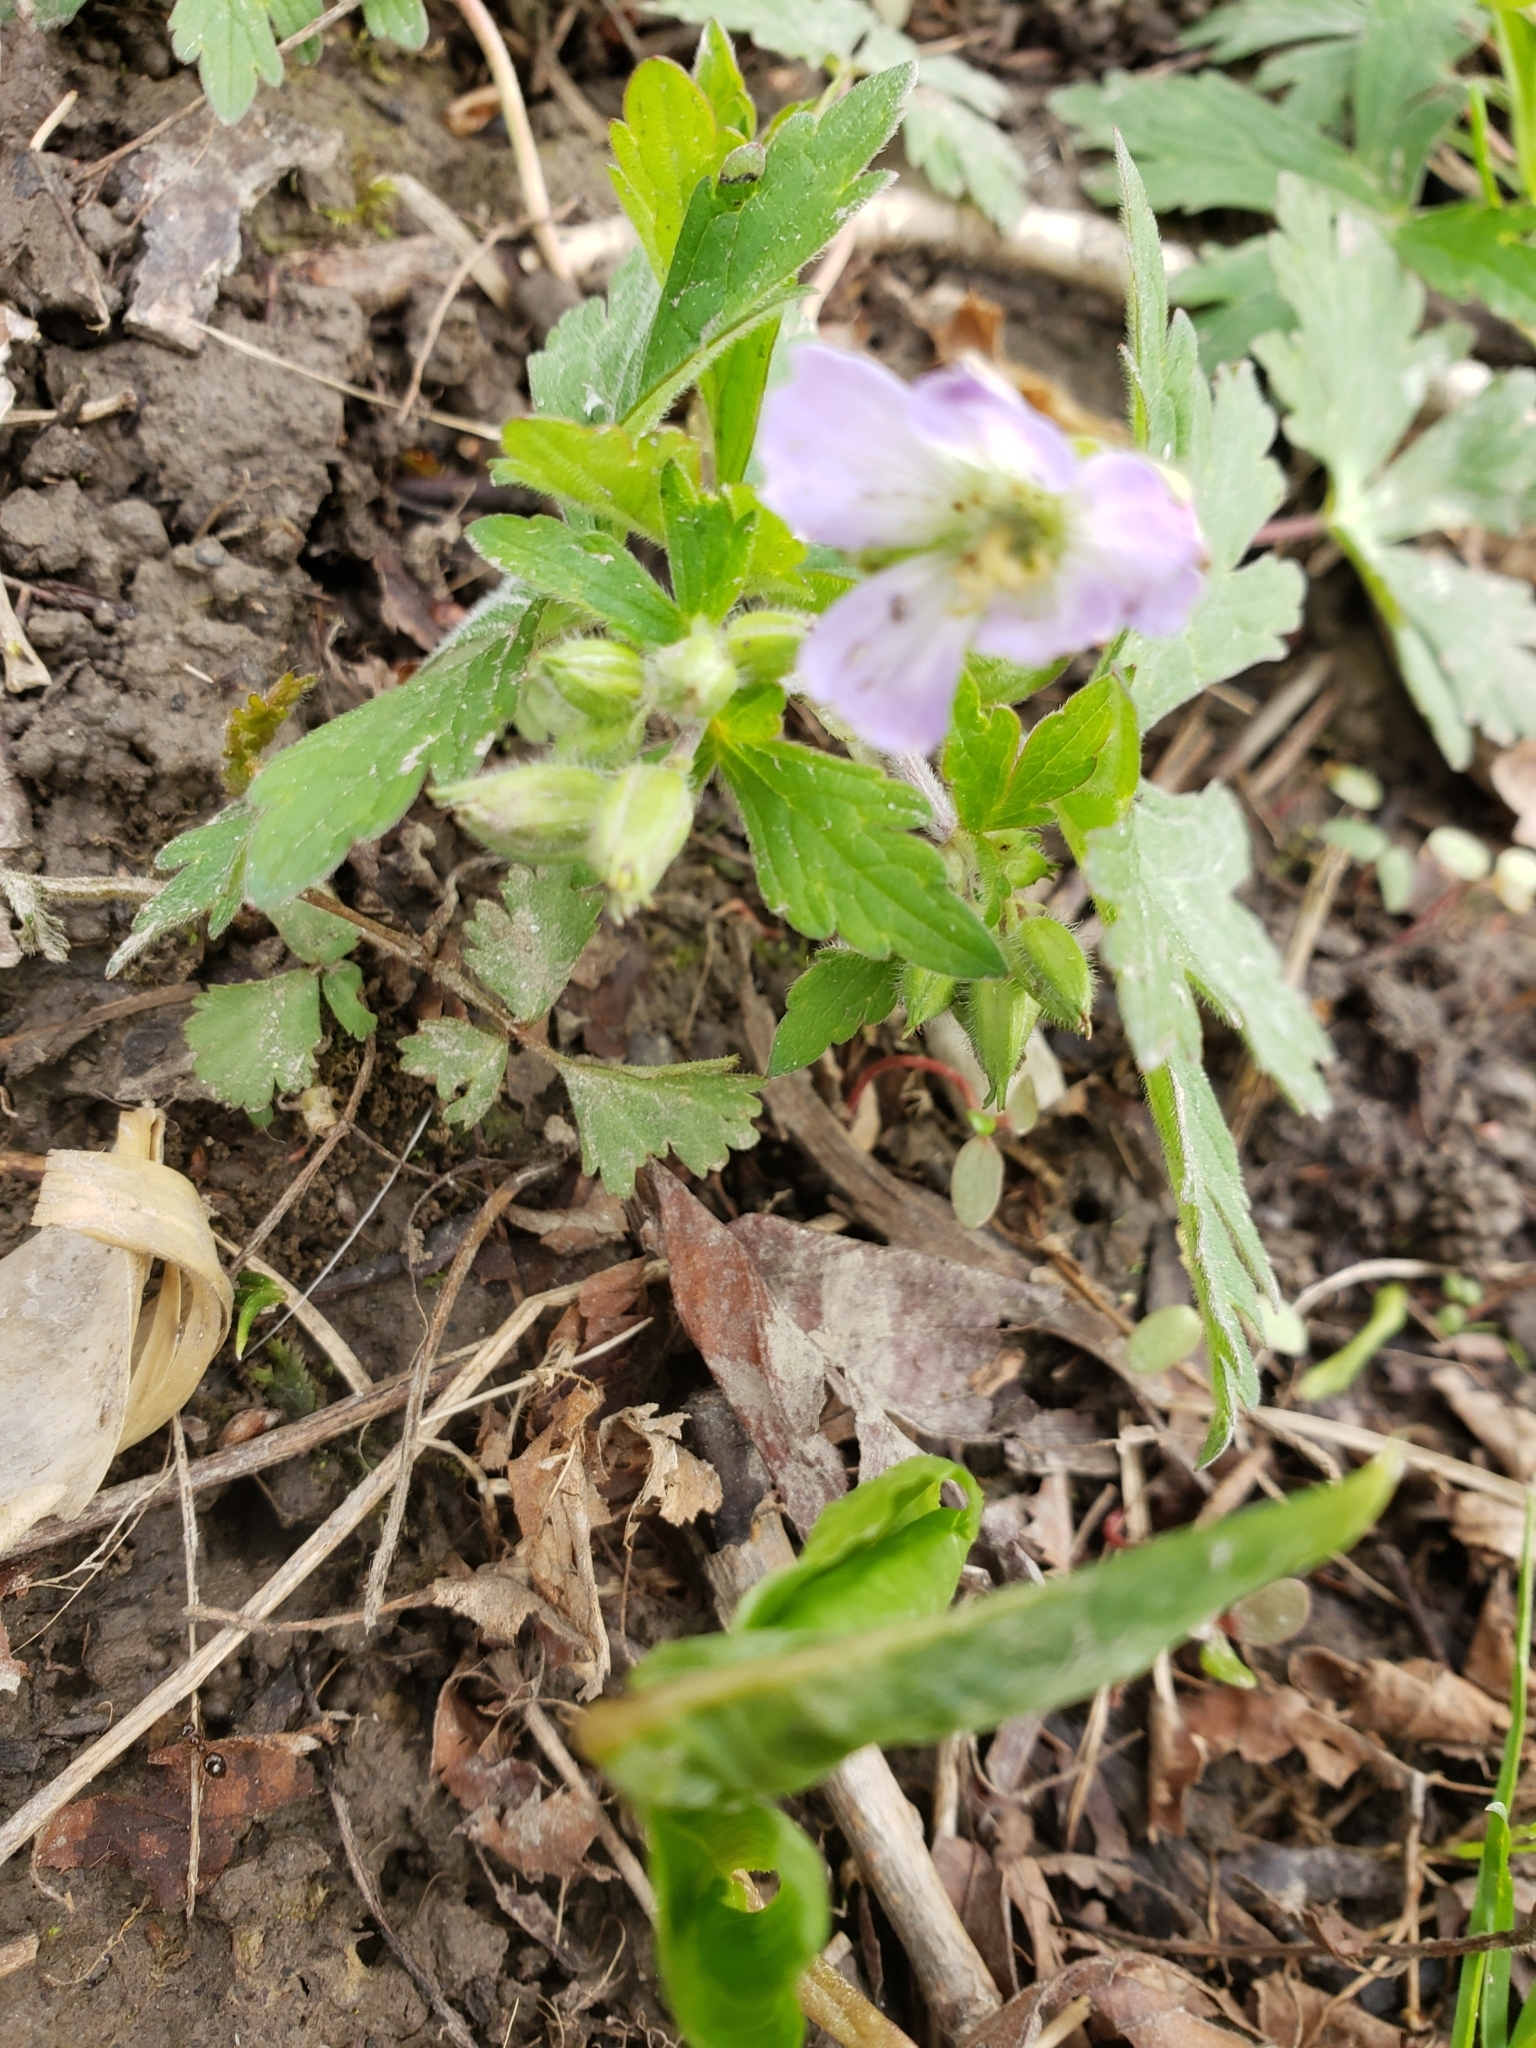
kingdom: Plantae
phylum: Tracheophyta
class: Magnoliopsida
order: Geraniales
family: Geraniaceae
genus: Geranium
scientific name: Geranium maculatum
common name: Spotted geranium
